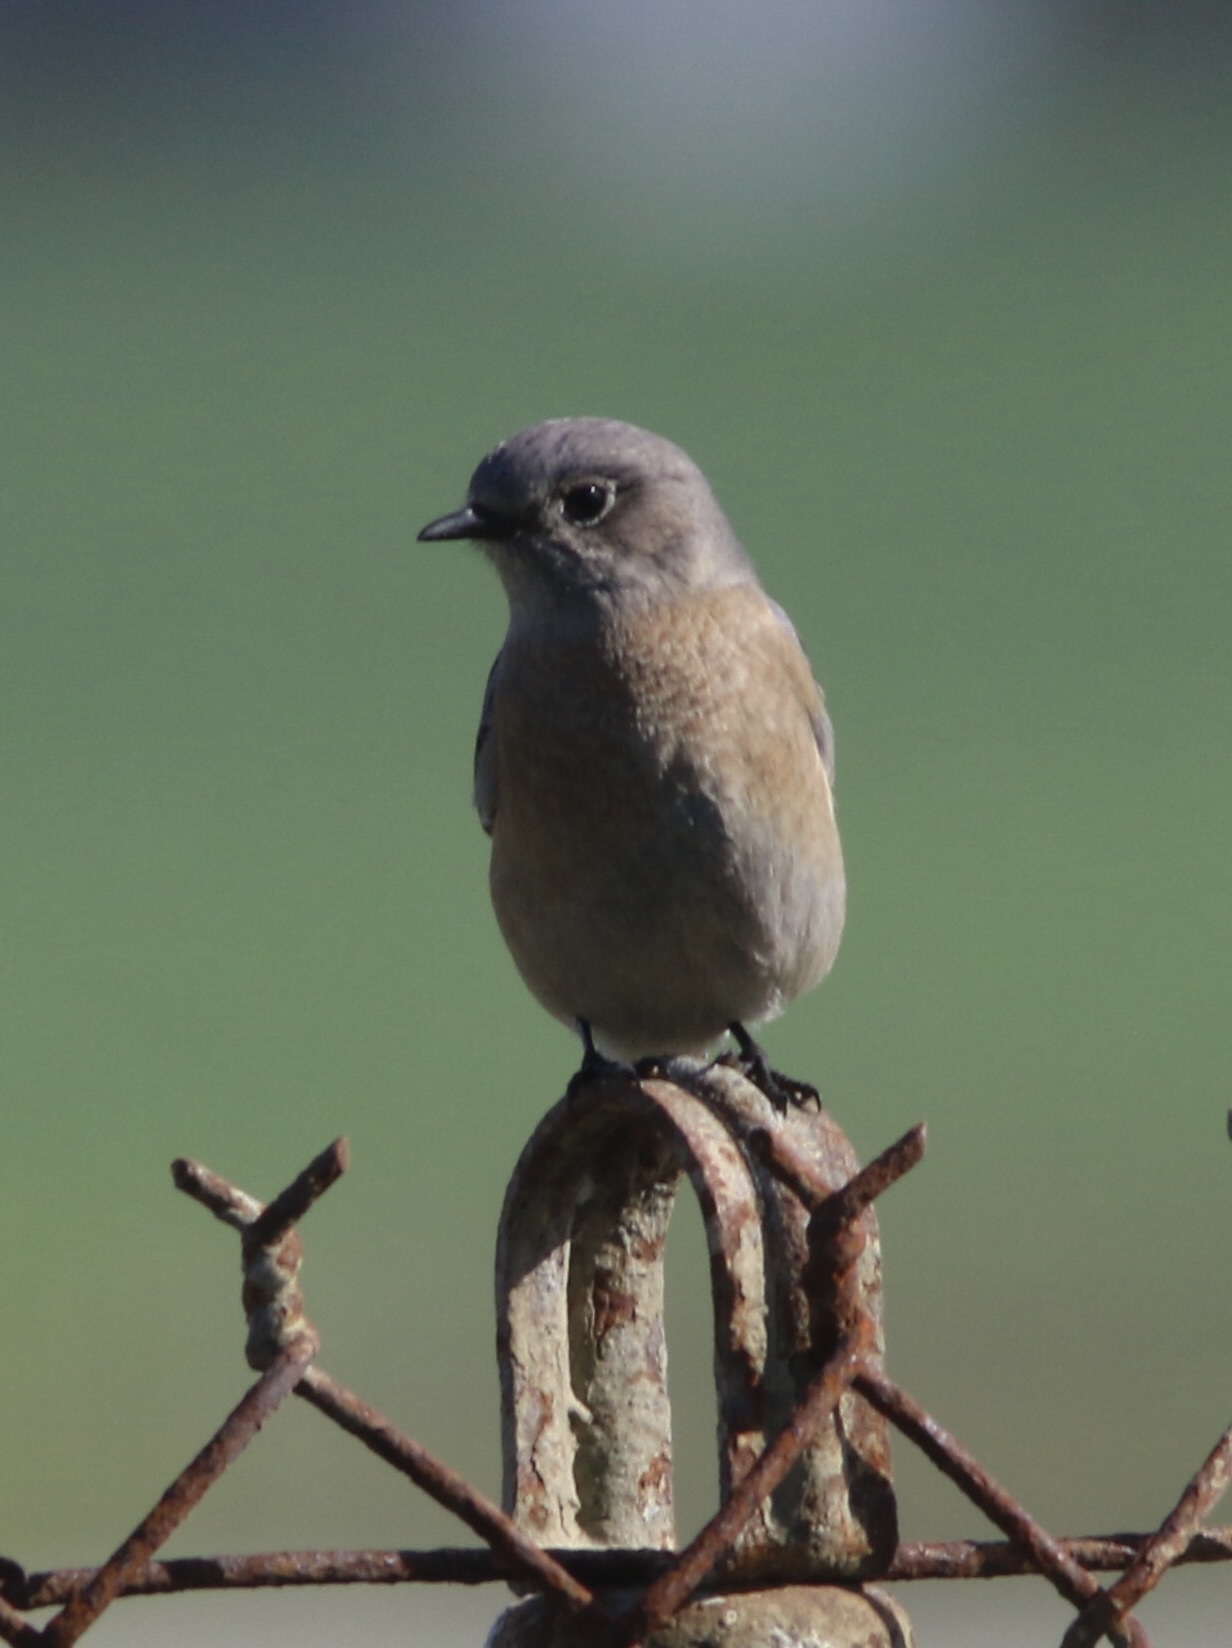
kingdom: Animalia
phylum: Chordata
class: Aves
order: Passeriformes
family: Turdidae
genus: Sialia
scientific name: Sialia mexicana
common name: Western bluebird
